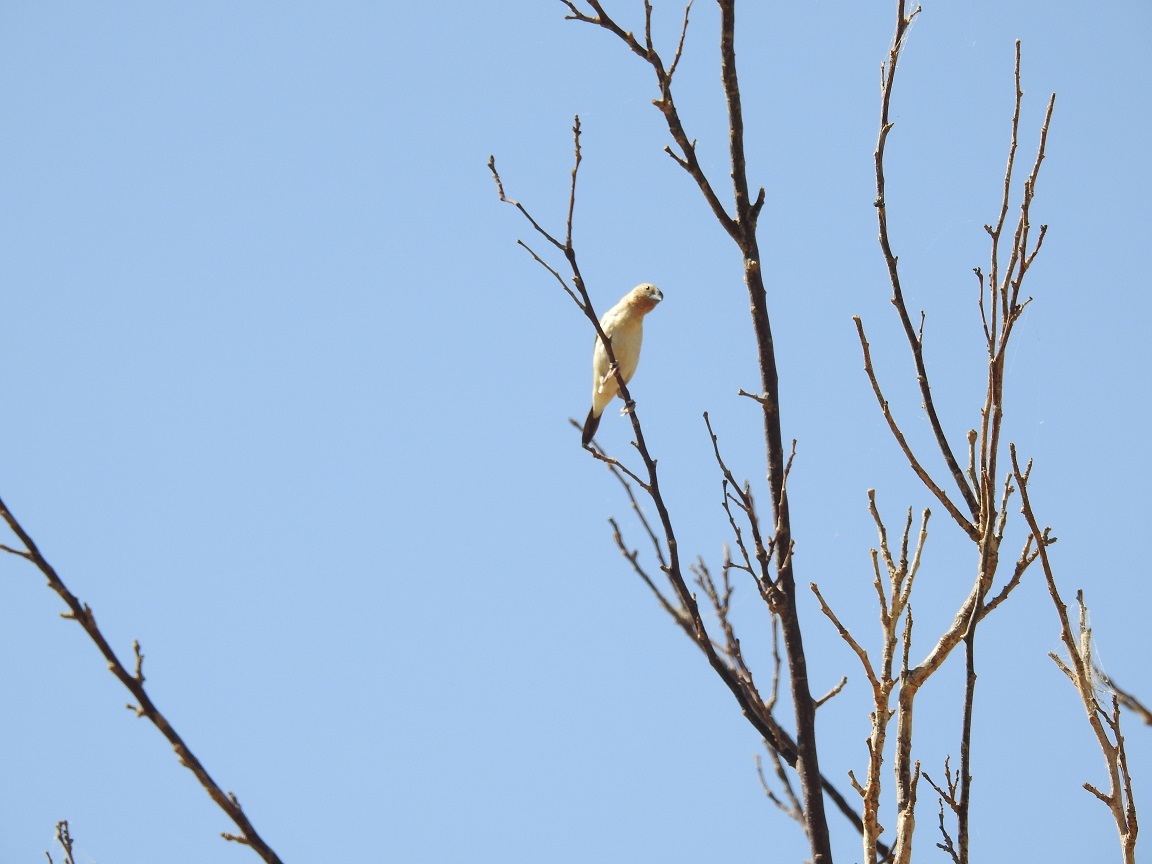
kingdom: Animalia
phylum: Chordata
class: Aves
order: Passeriformes
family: Estrildidae
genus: Euodice
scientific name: Euodice cantans
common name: African silverbill
